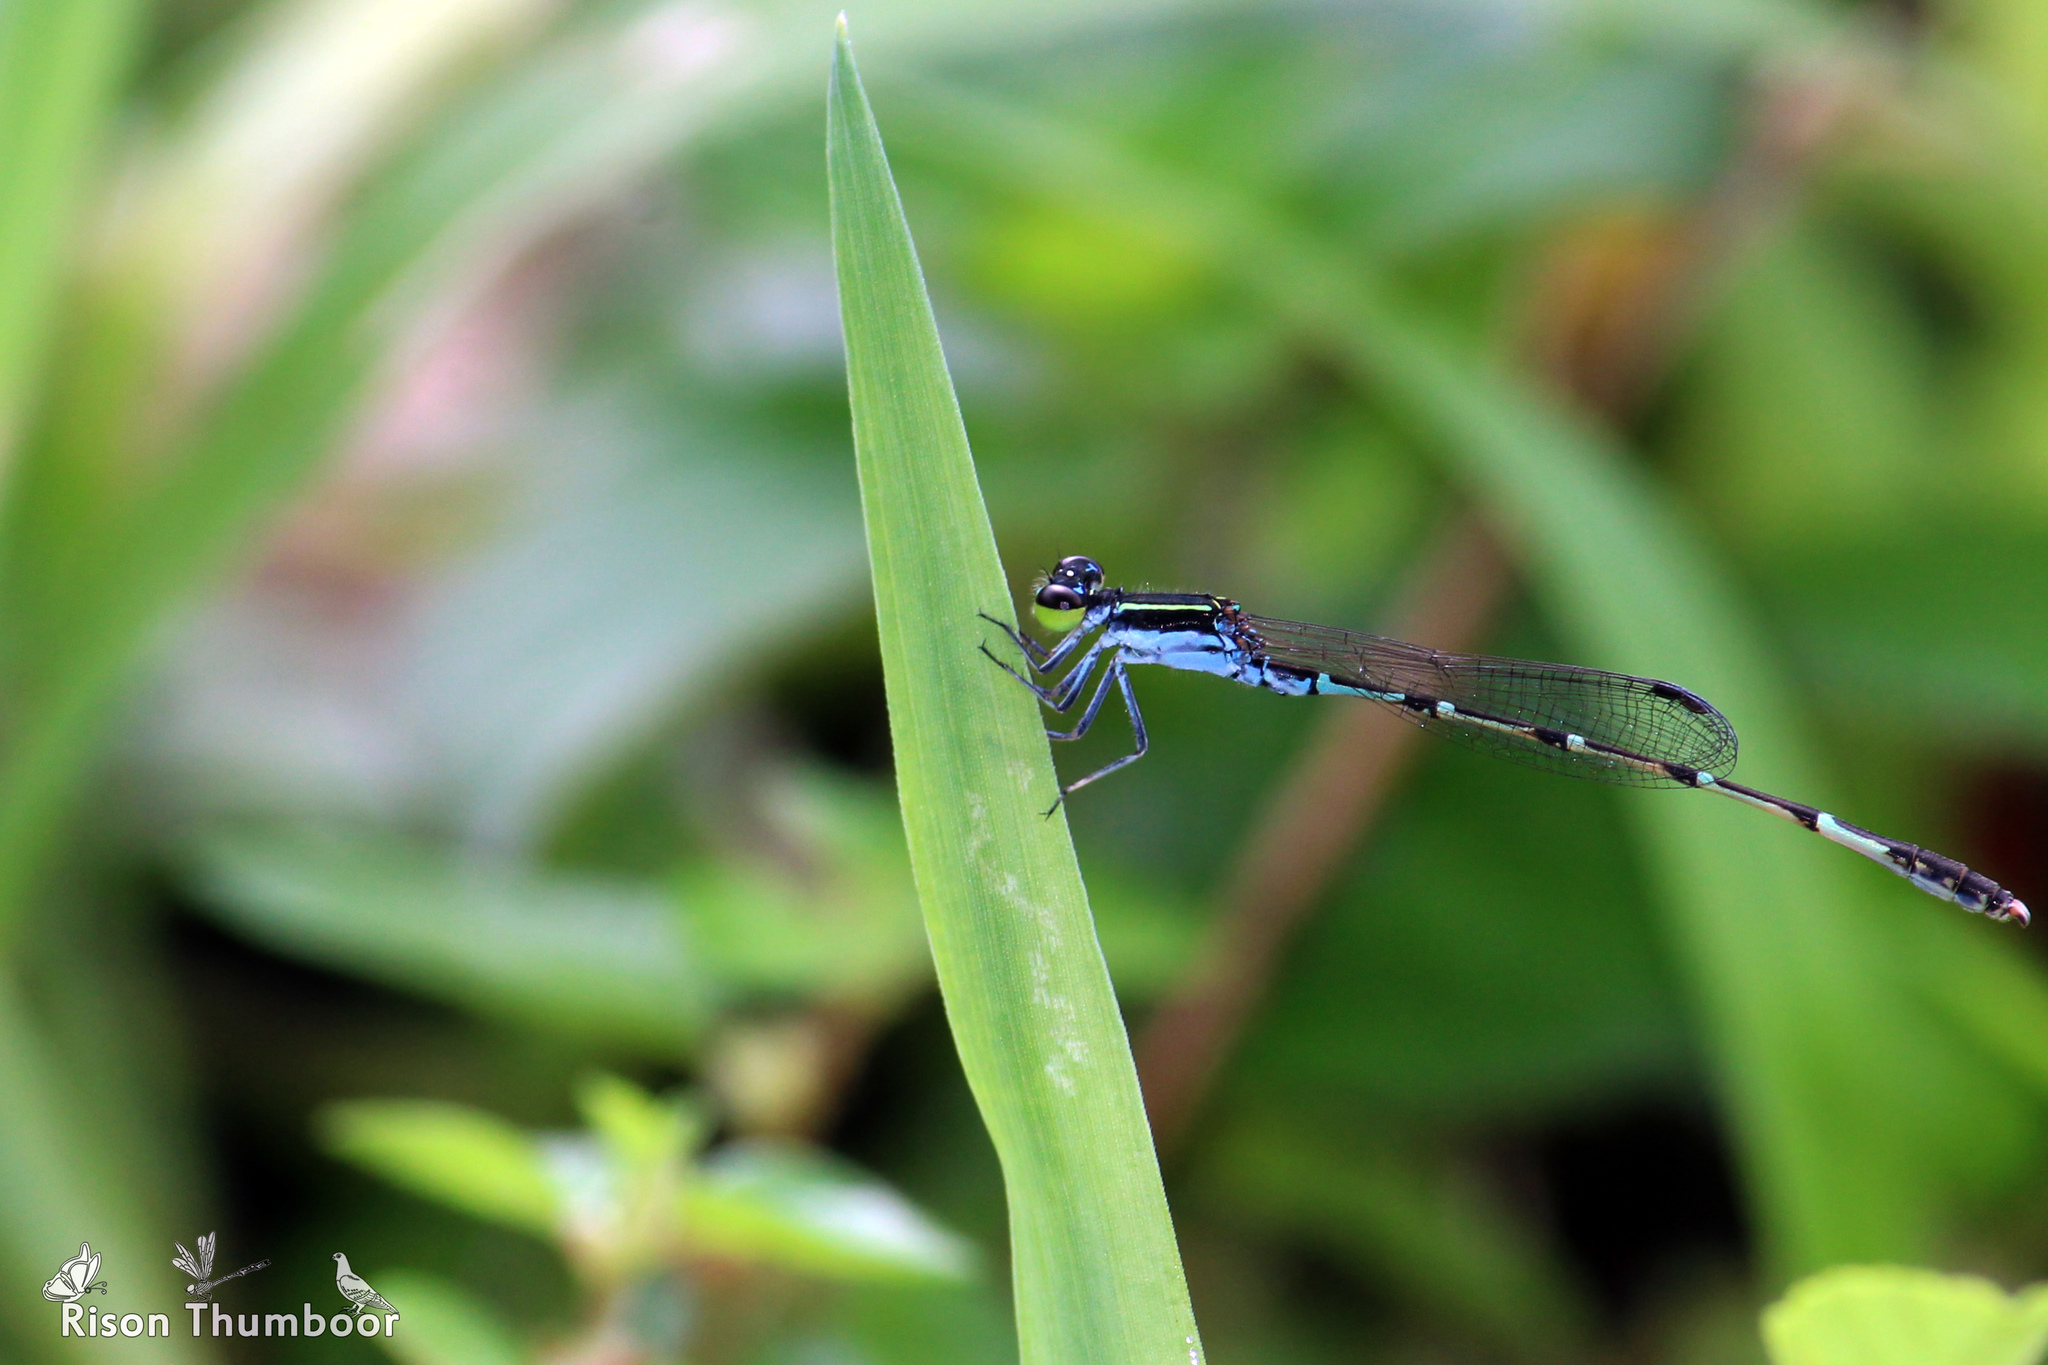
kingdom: Animalia
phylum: Arthropoda
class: Insecta
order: Odonata
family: Coenagrionidae
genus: Agriocnemis
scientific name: Agriocnemis splendidissima
